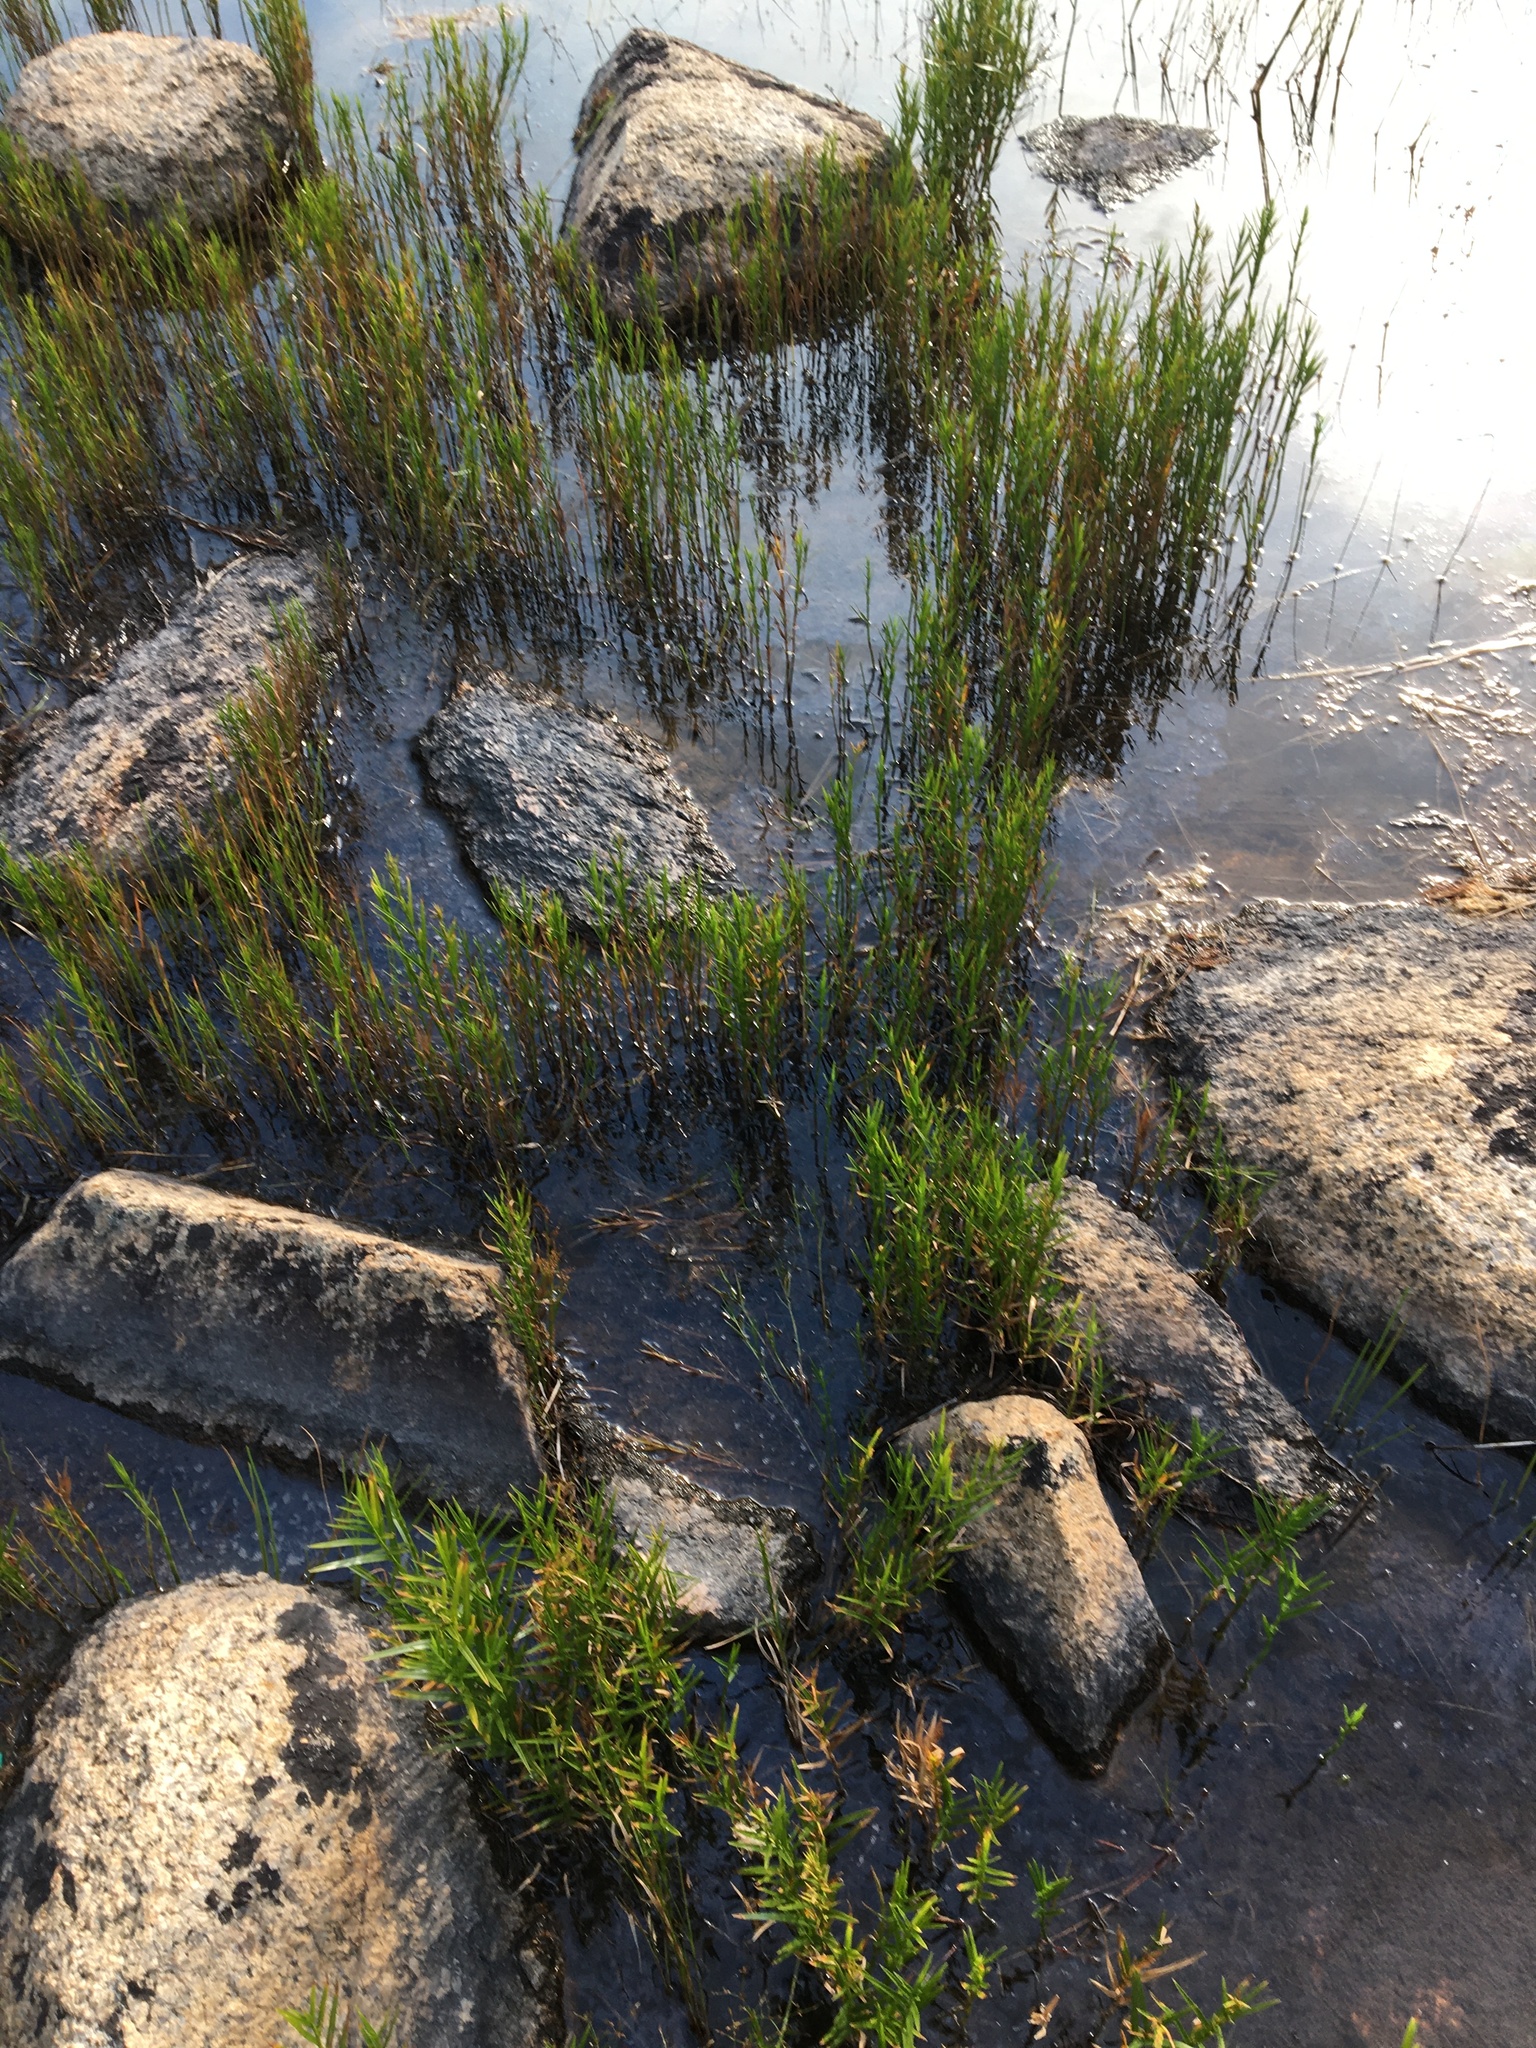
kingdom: Plantae
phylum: Tracheophyta
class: Liliopsida
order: Poales
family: Cyperaceae
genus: Dulichium
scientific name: Dulichium arundinaceum
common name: Three-way sedge
